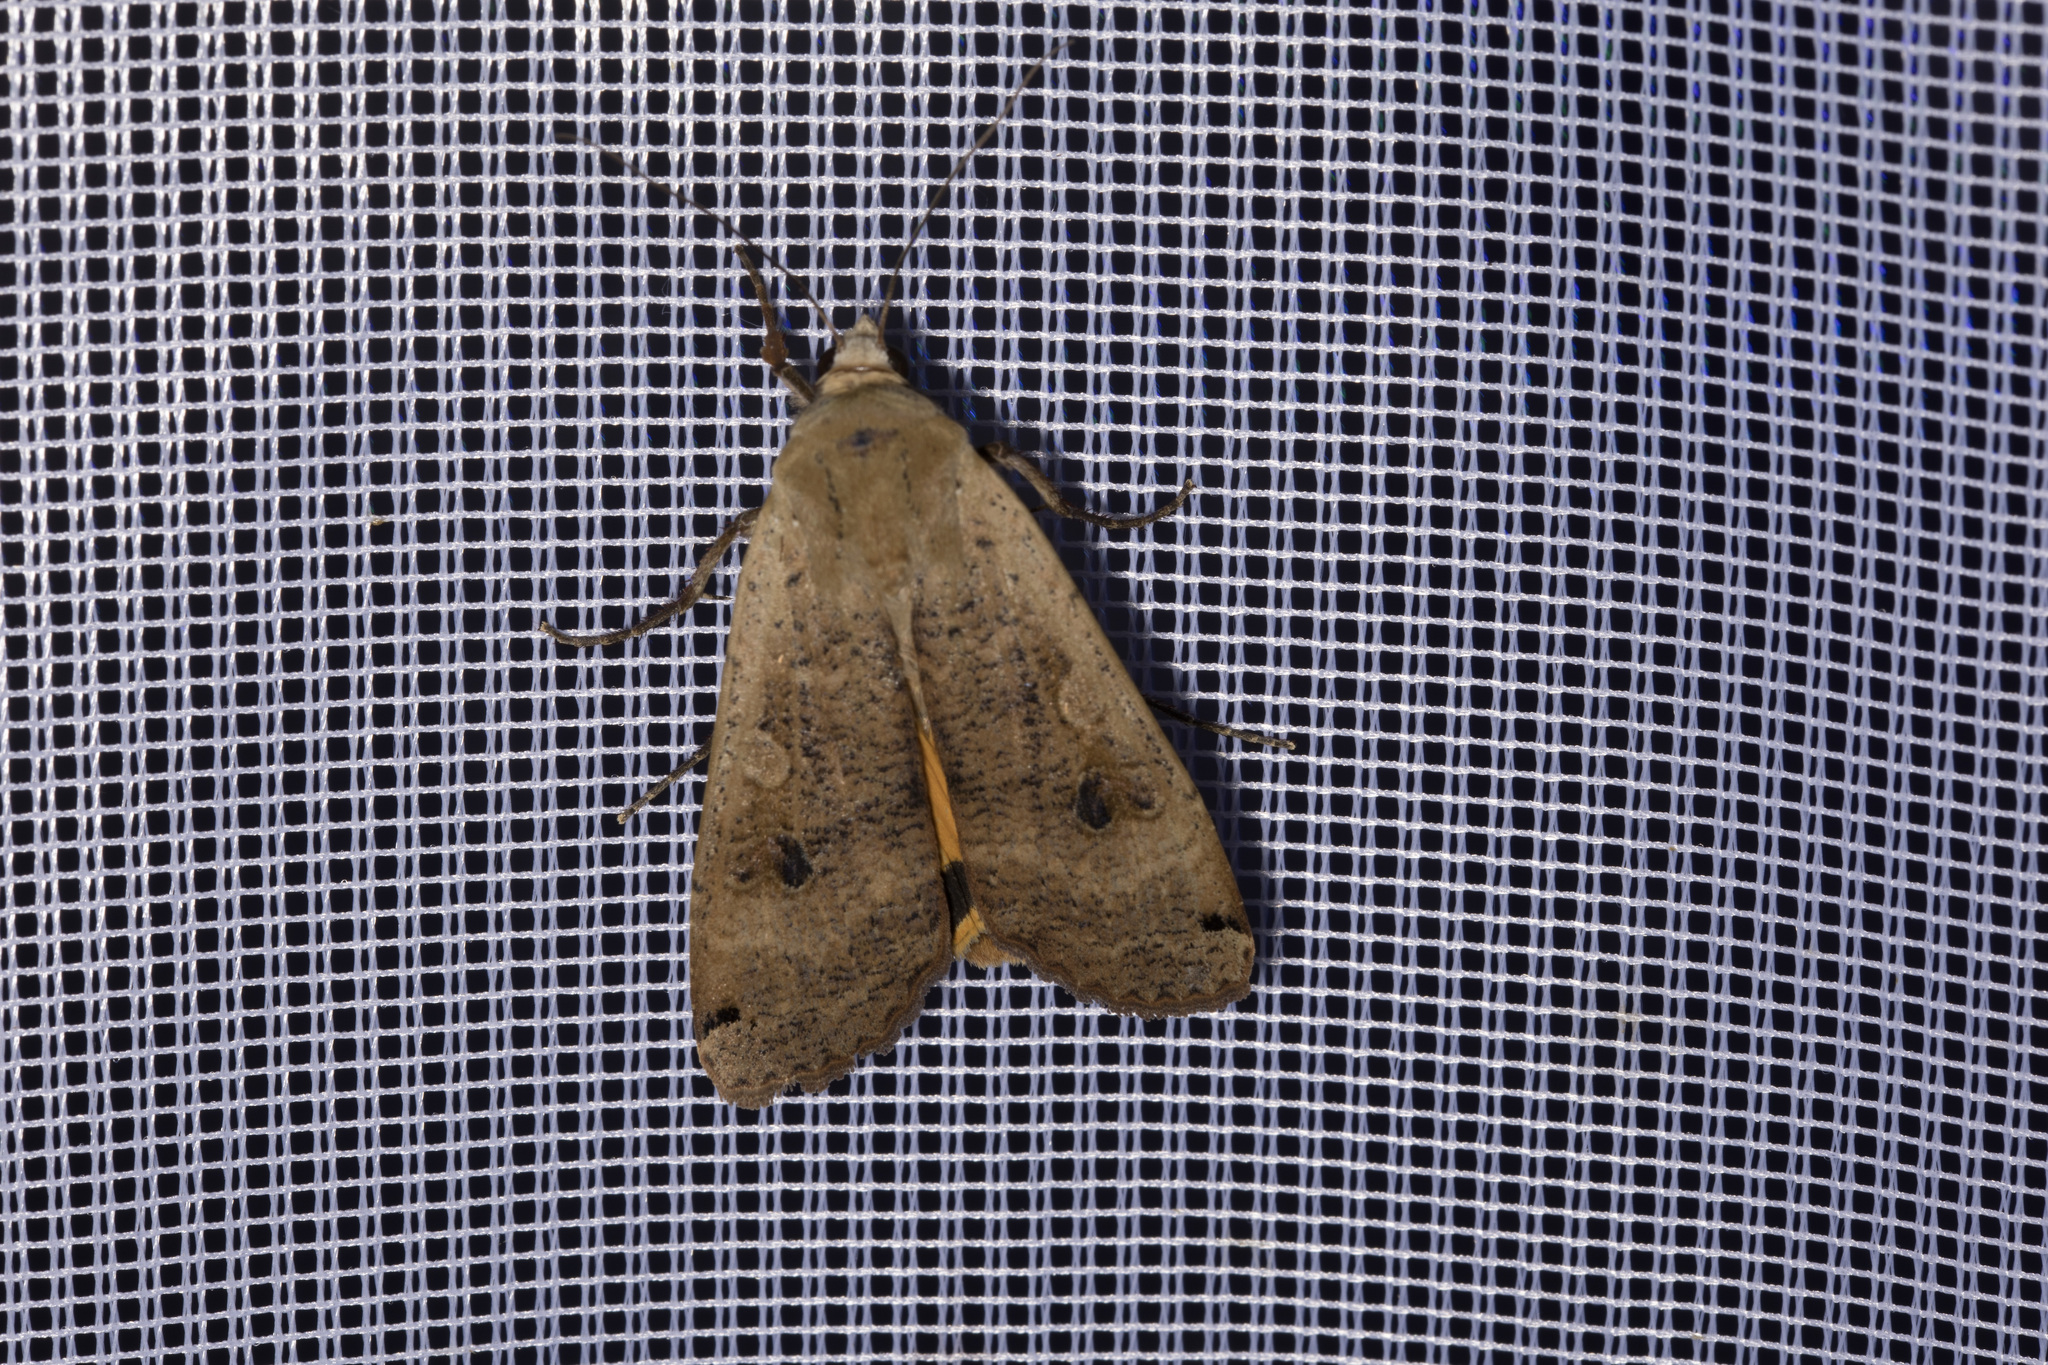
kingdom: Animalia
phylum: Arthropoda
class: Insecta
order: Lepidoptera
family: Noctuidae
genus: Noctua
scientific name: Noctua pronuba
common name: Large yellow underwing
